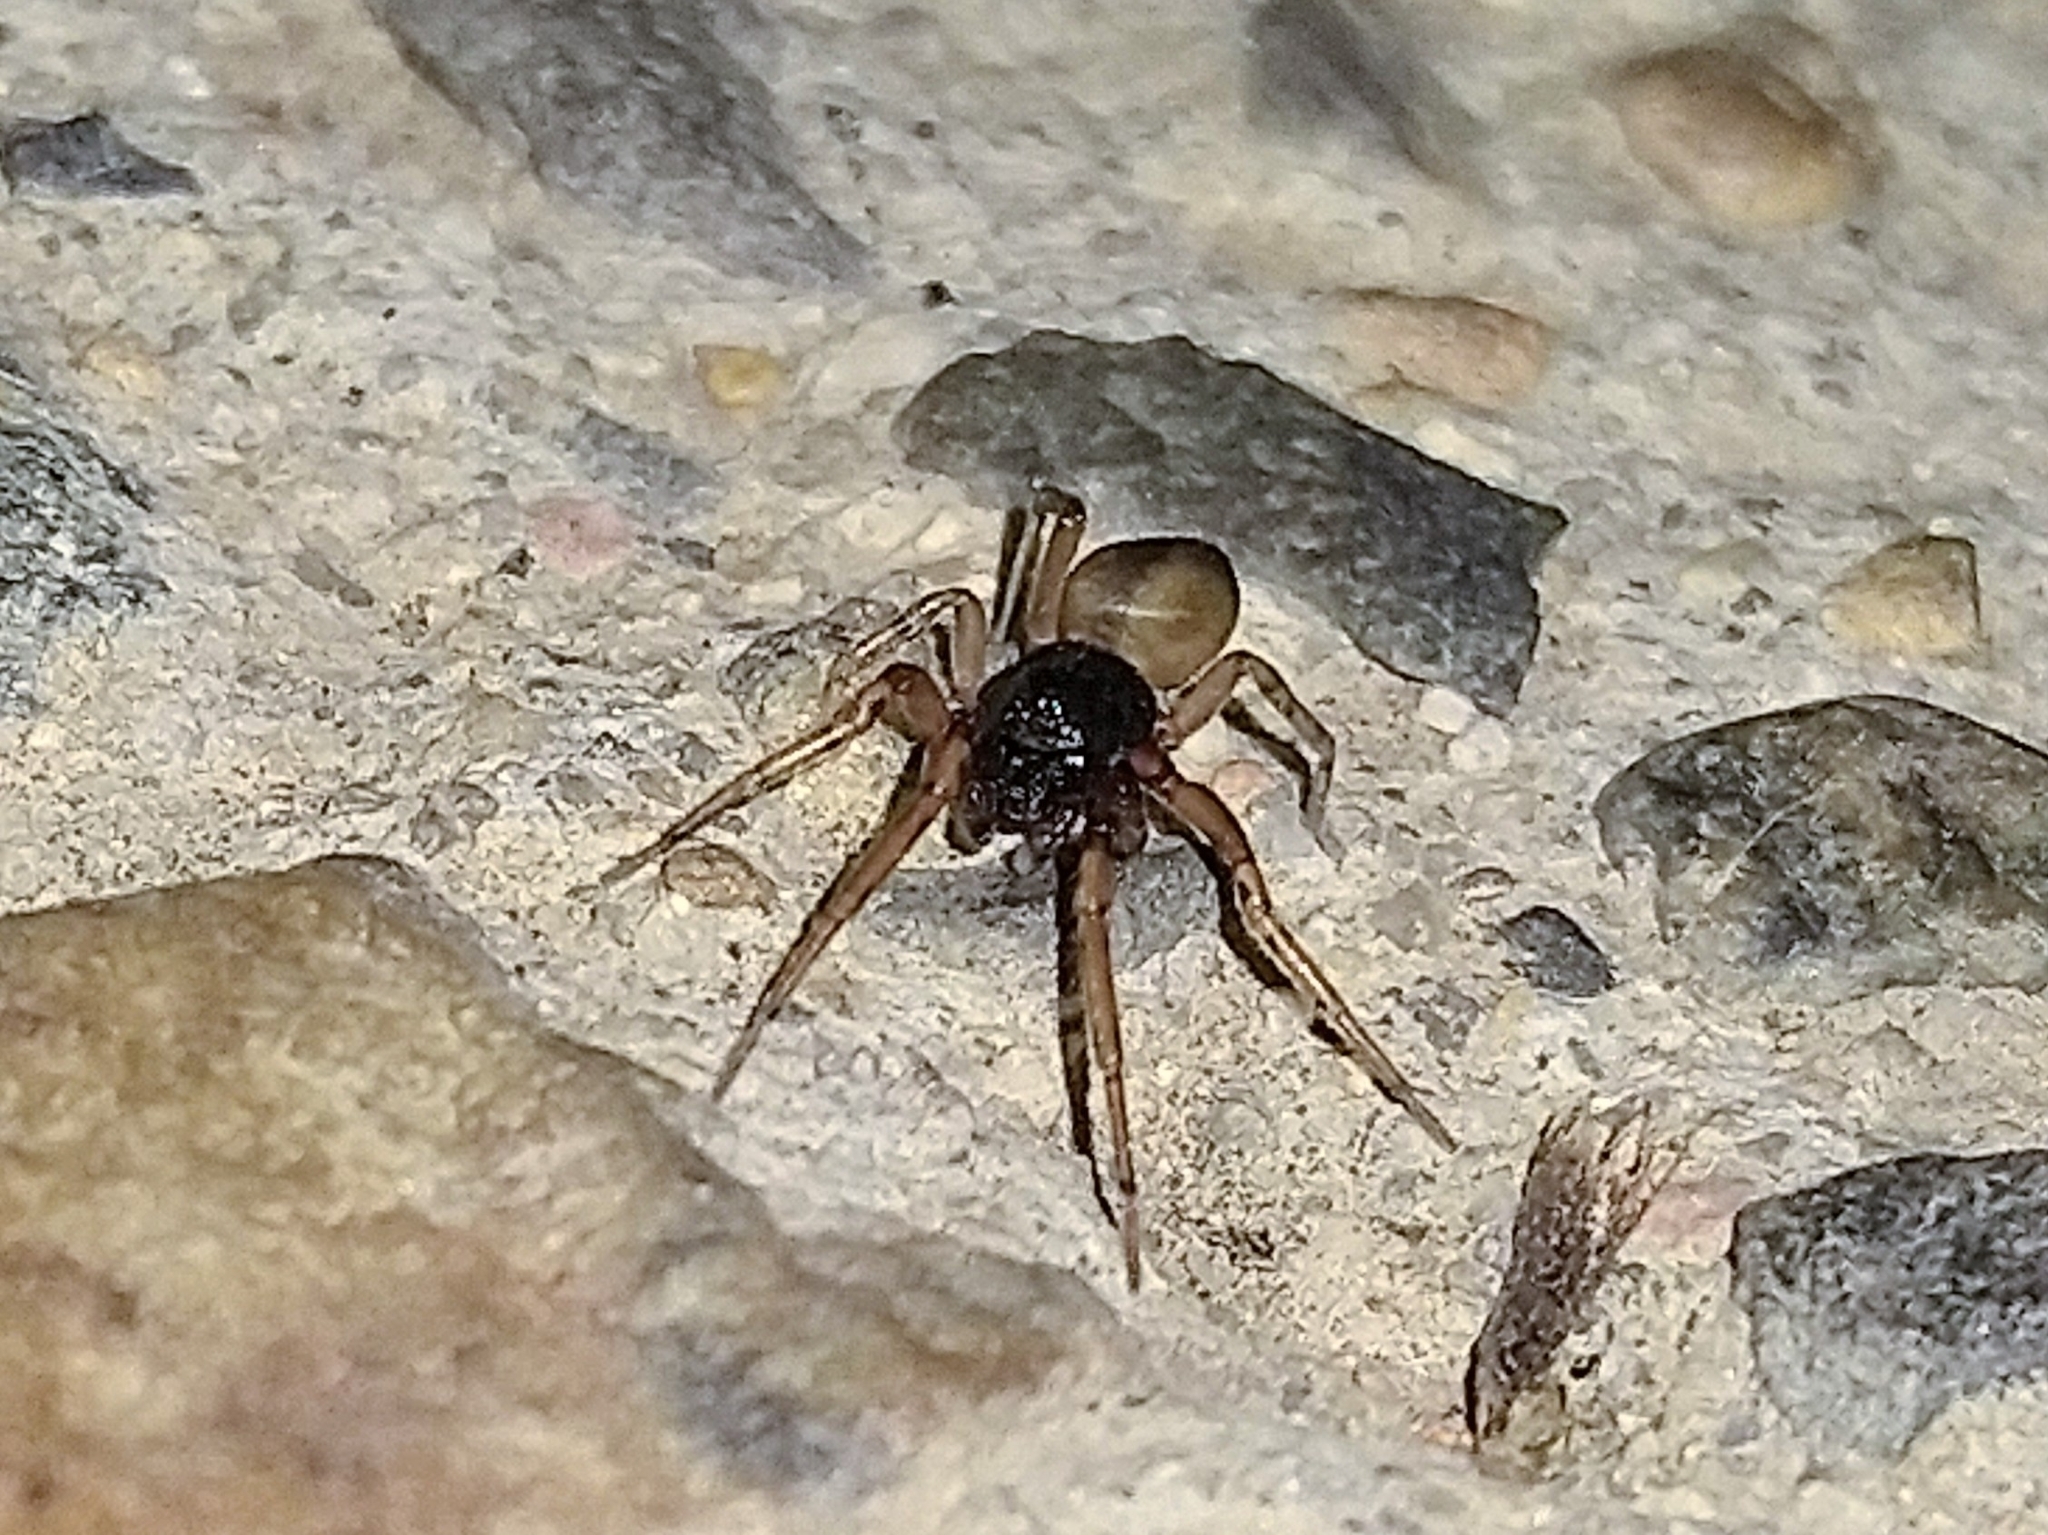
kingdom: Animalia
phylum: Arthropoda
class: Arachnida
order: Araneae
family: Trachelidae
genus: Trachelas
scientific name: Trachelas pacificus
